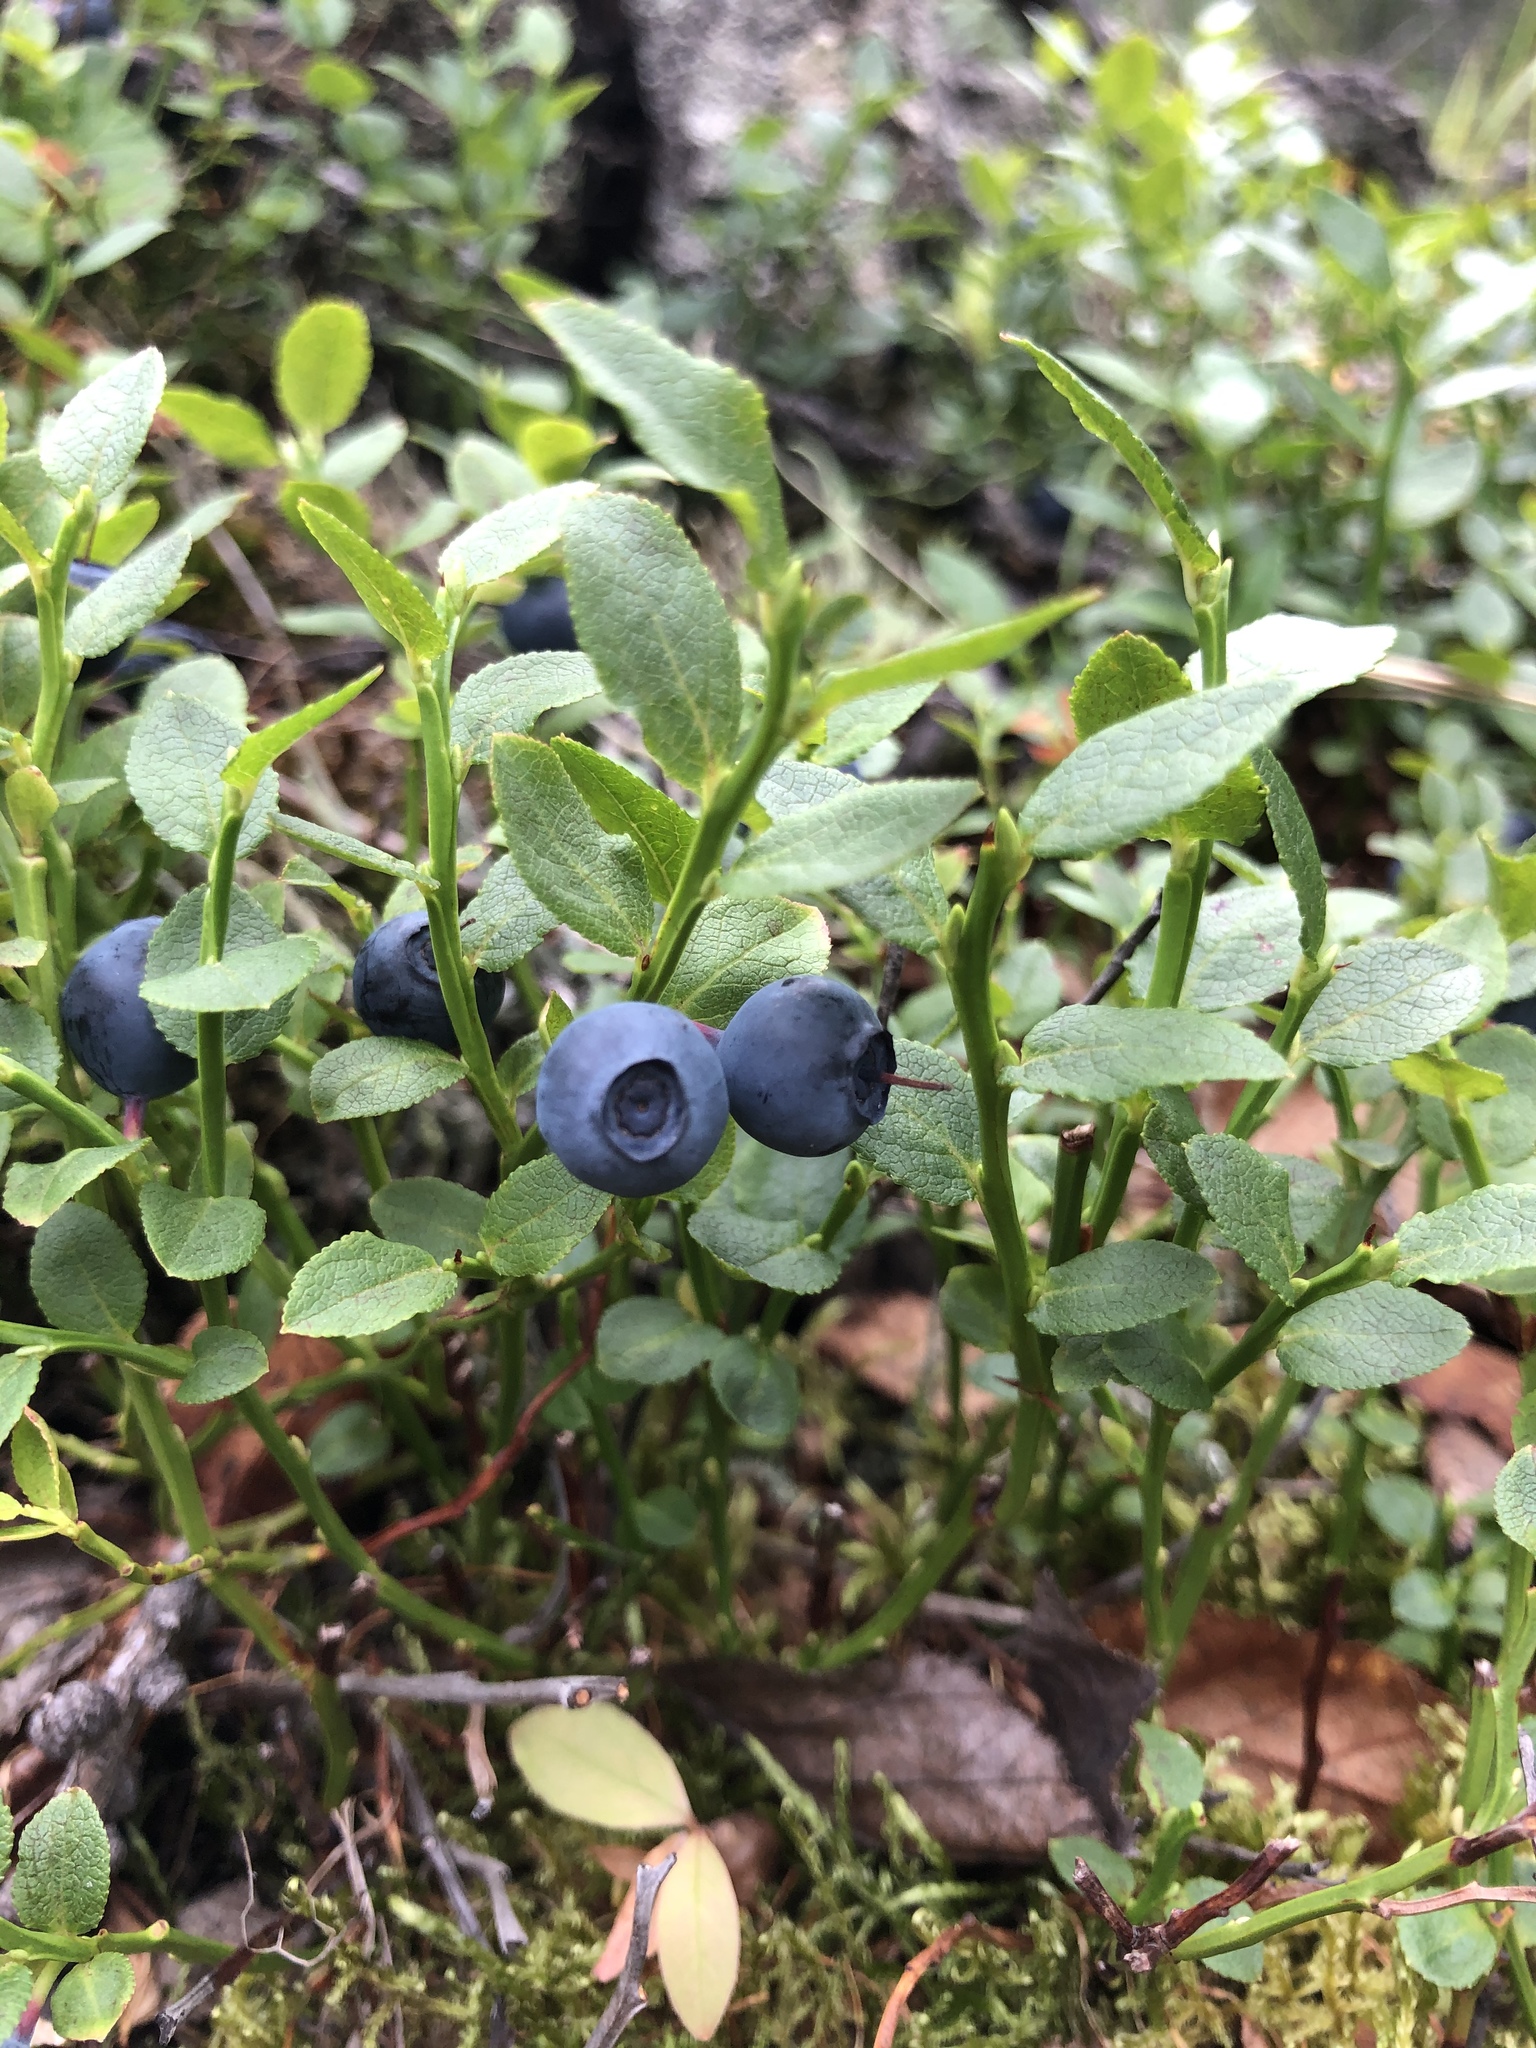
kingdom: Plantae
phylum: Tracheophyta
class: Magnoliopsida
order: Ericales
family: Ericaceae
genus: Vaccinium
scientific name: Vaccinium myrtillus
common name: Bilberry
